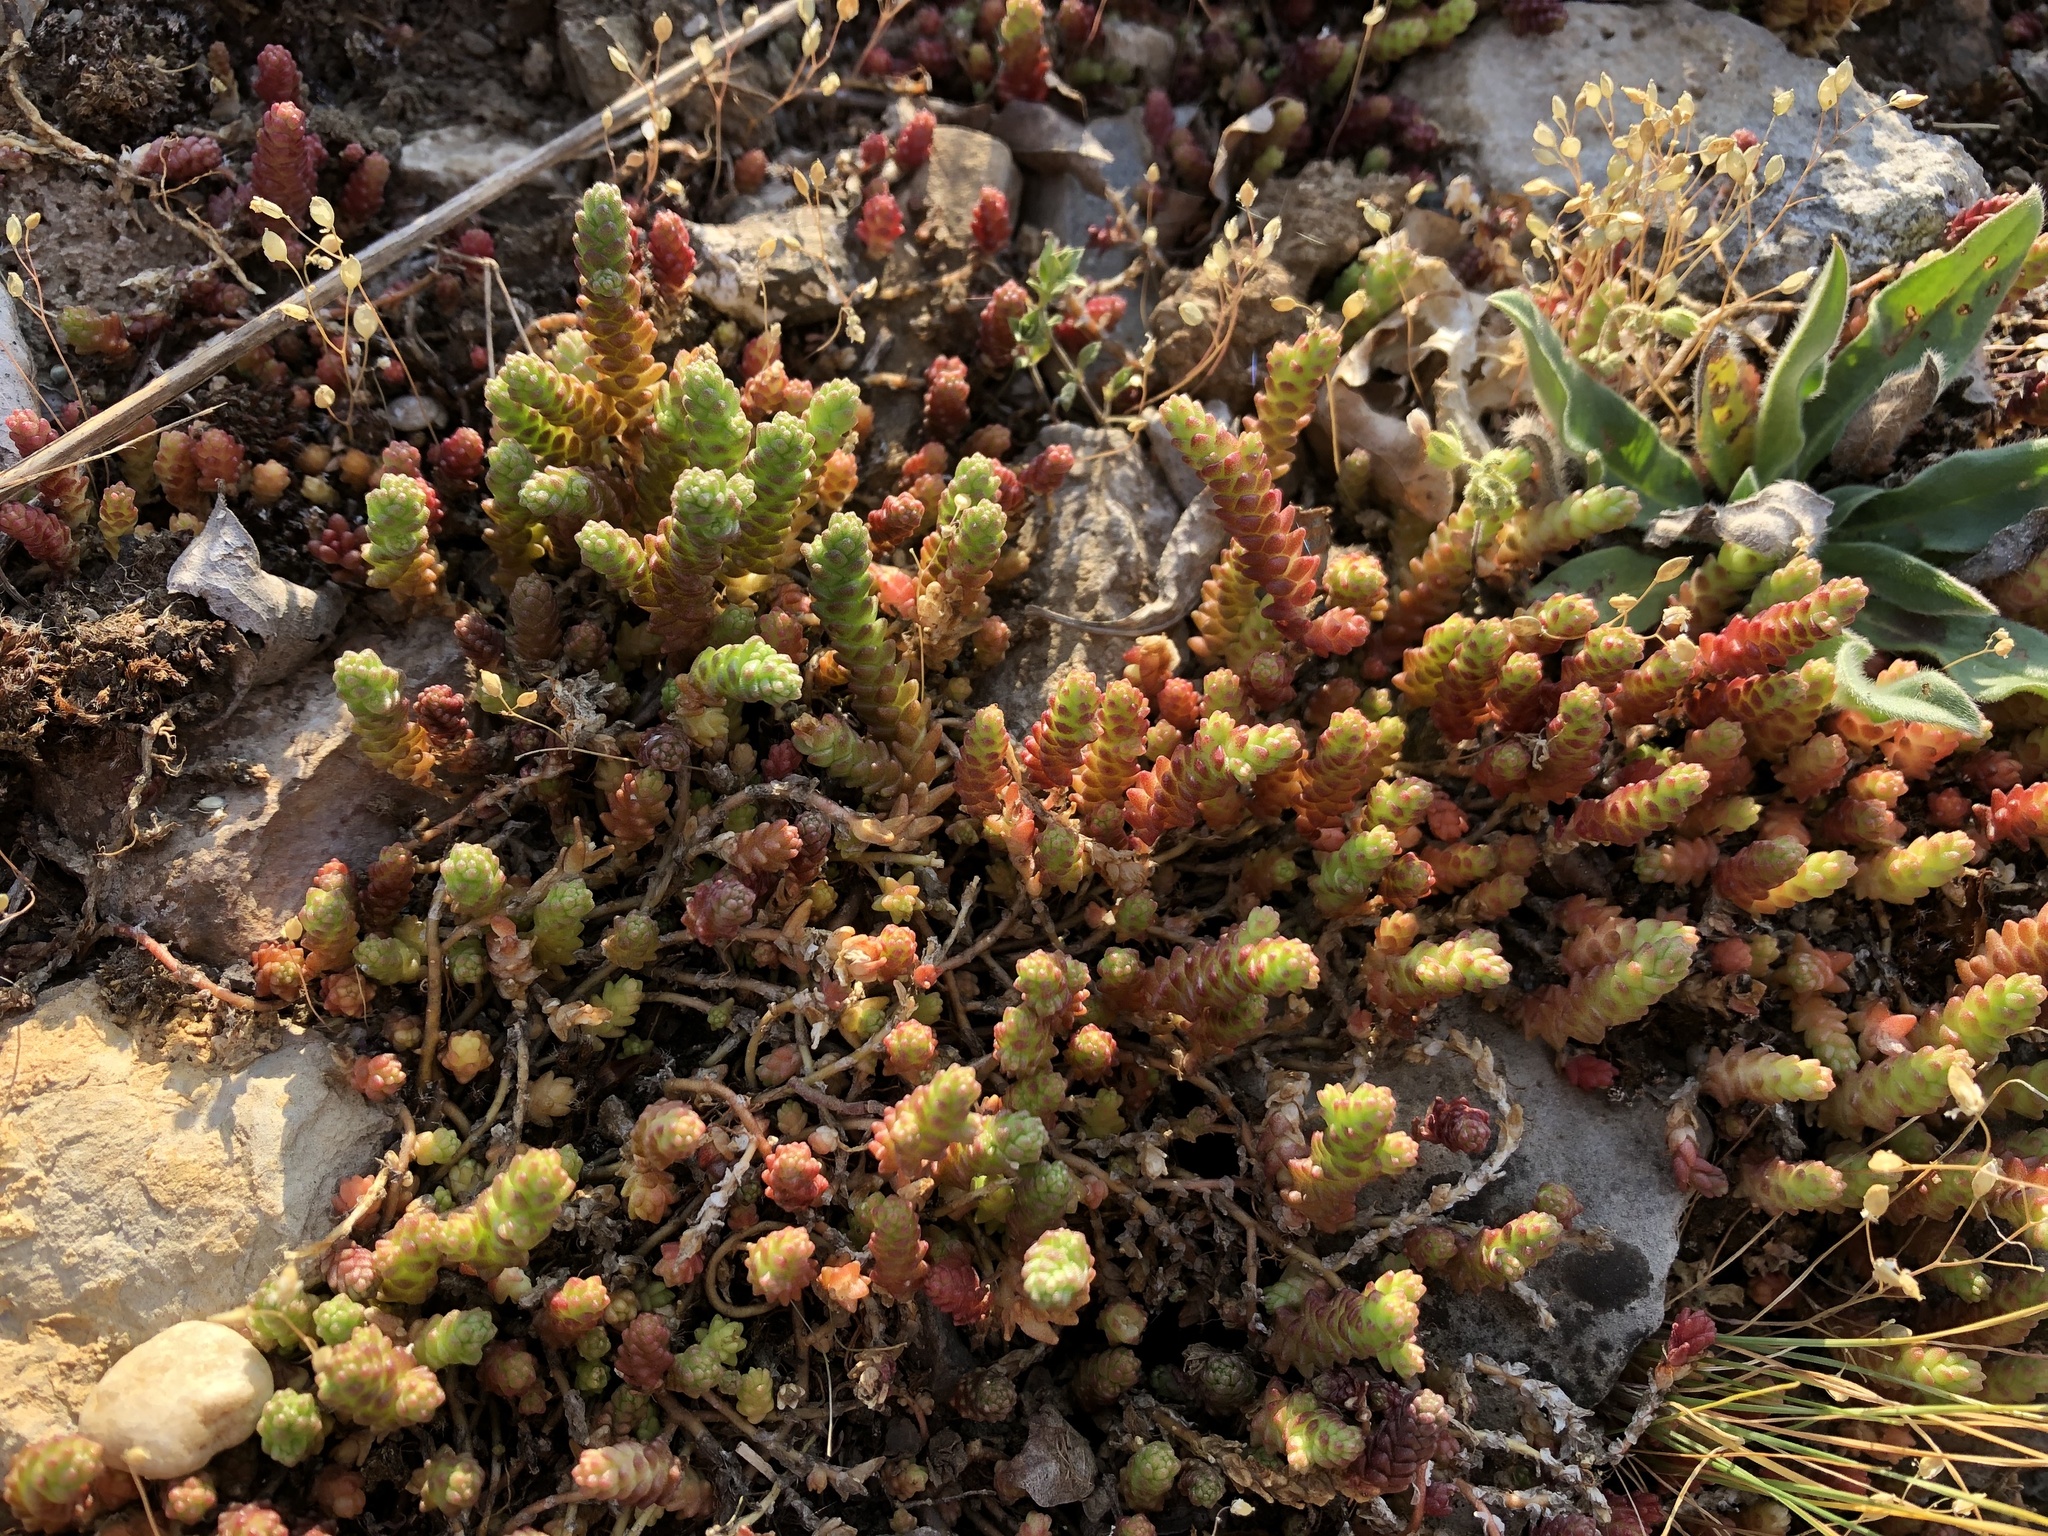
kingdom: Plantae
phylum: Tracheophyta
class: Magnoliopsida
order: Saxifragales
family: Crassulaceae
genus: Sedum
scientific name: Sedum acre
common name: Biting stonecrop
